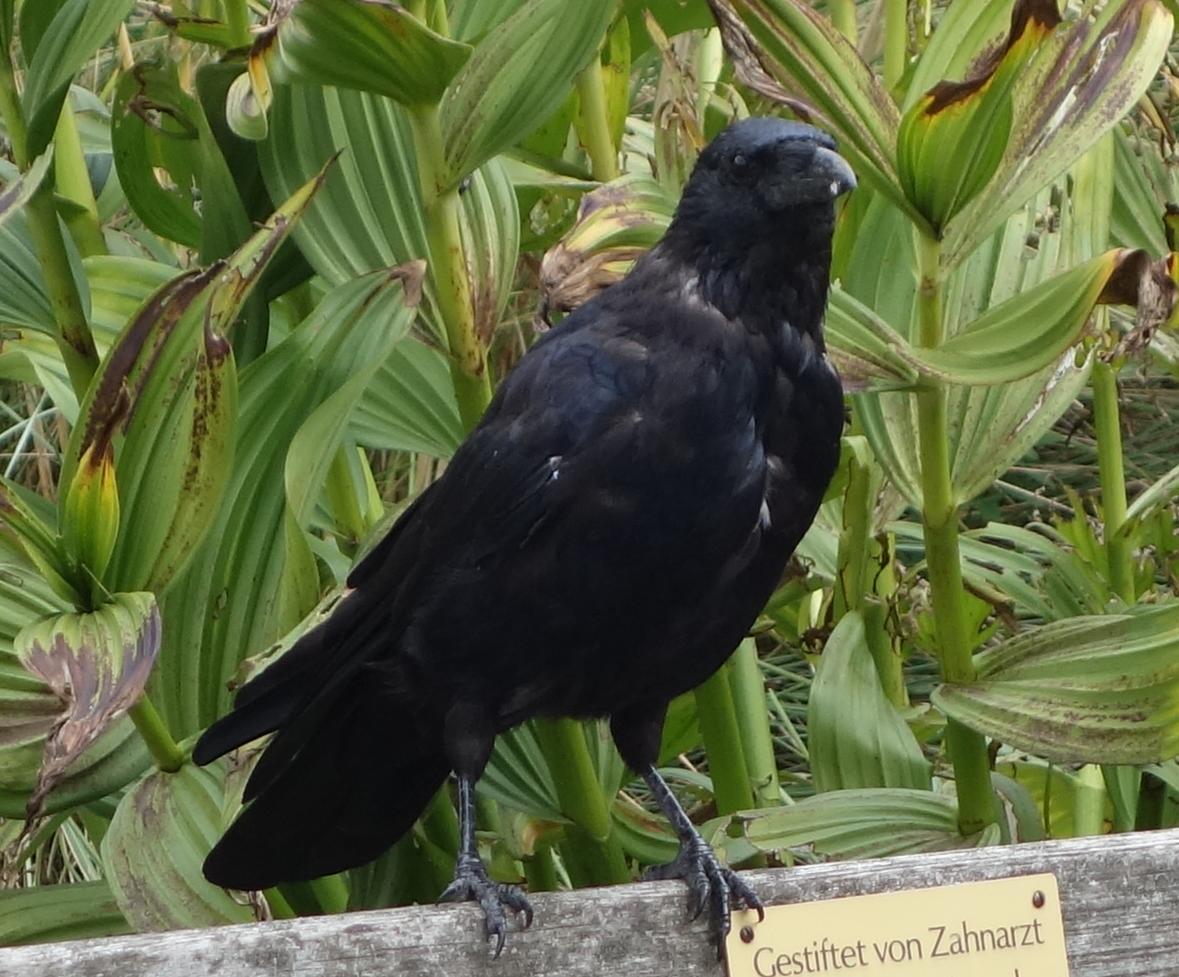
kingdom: Animalia
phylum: Chordata
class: Aves
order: Passeriformes
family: Corvidae
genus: Corvus
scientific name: Corvus corone
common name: Carrion crow
